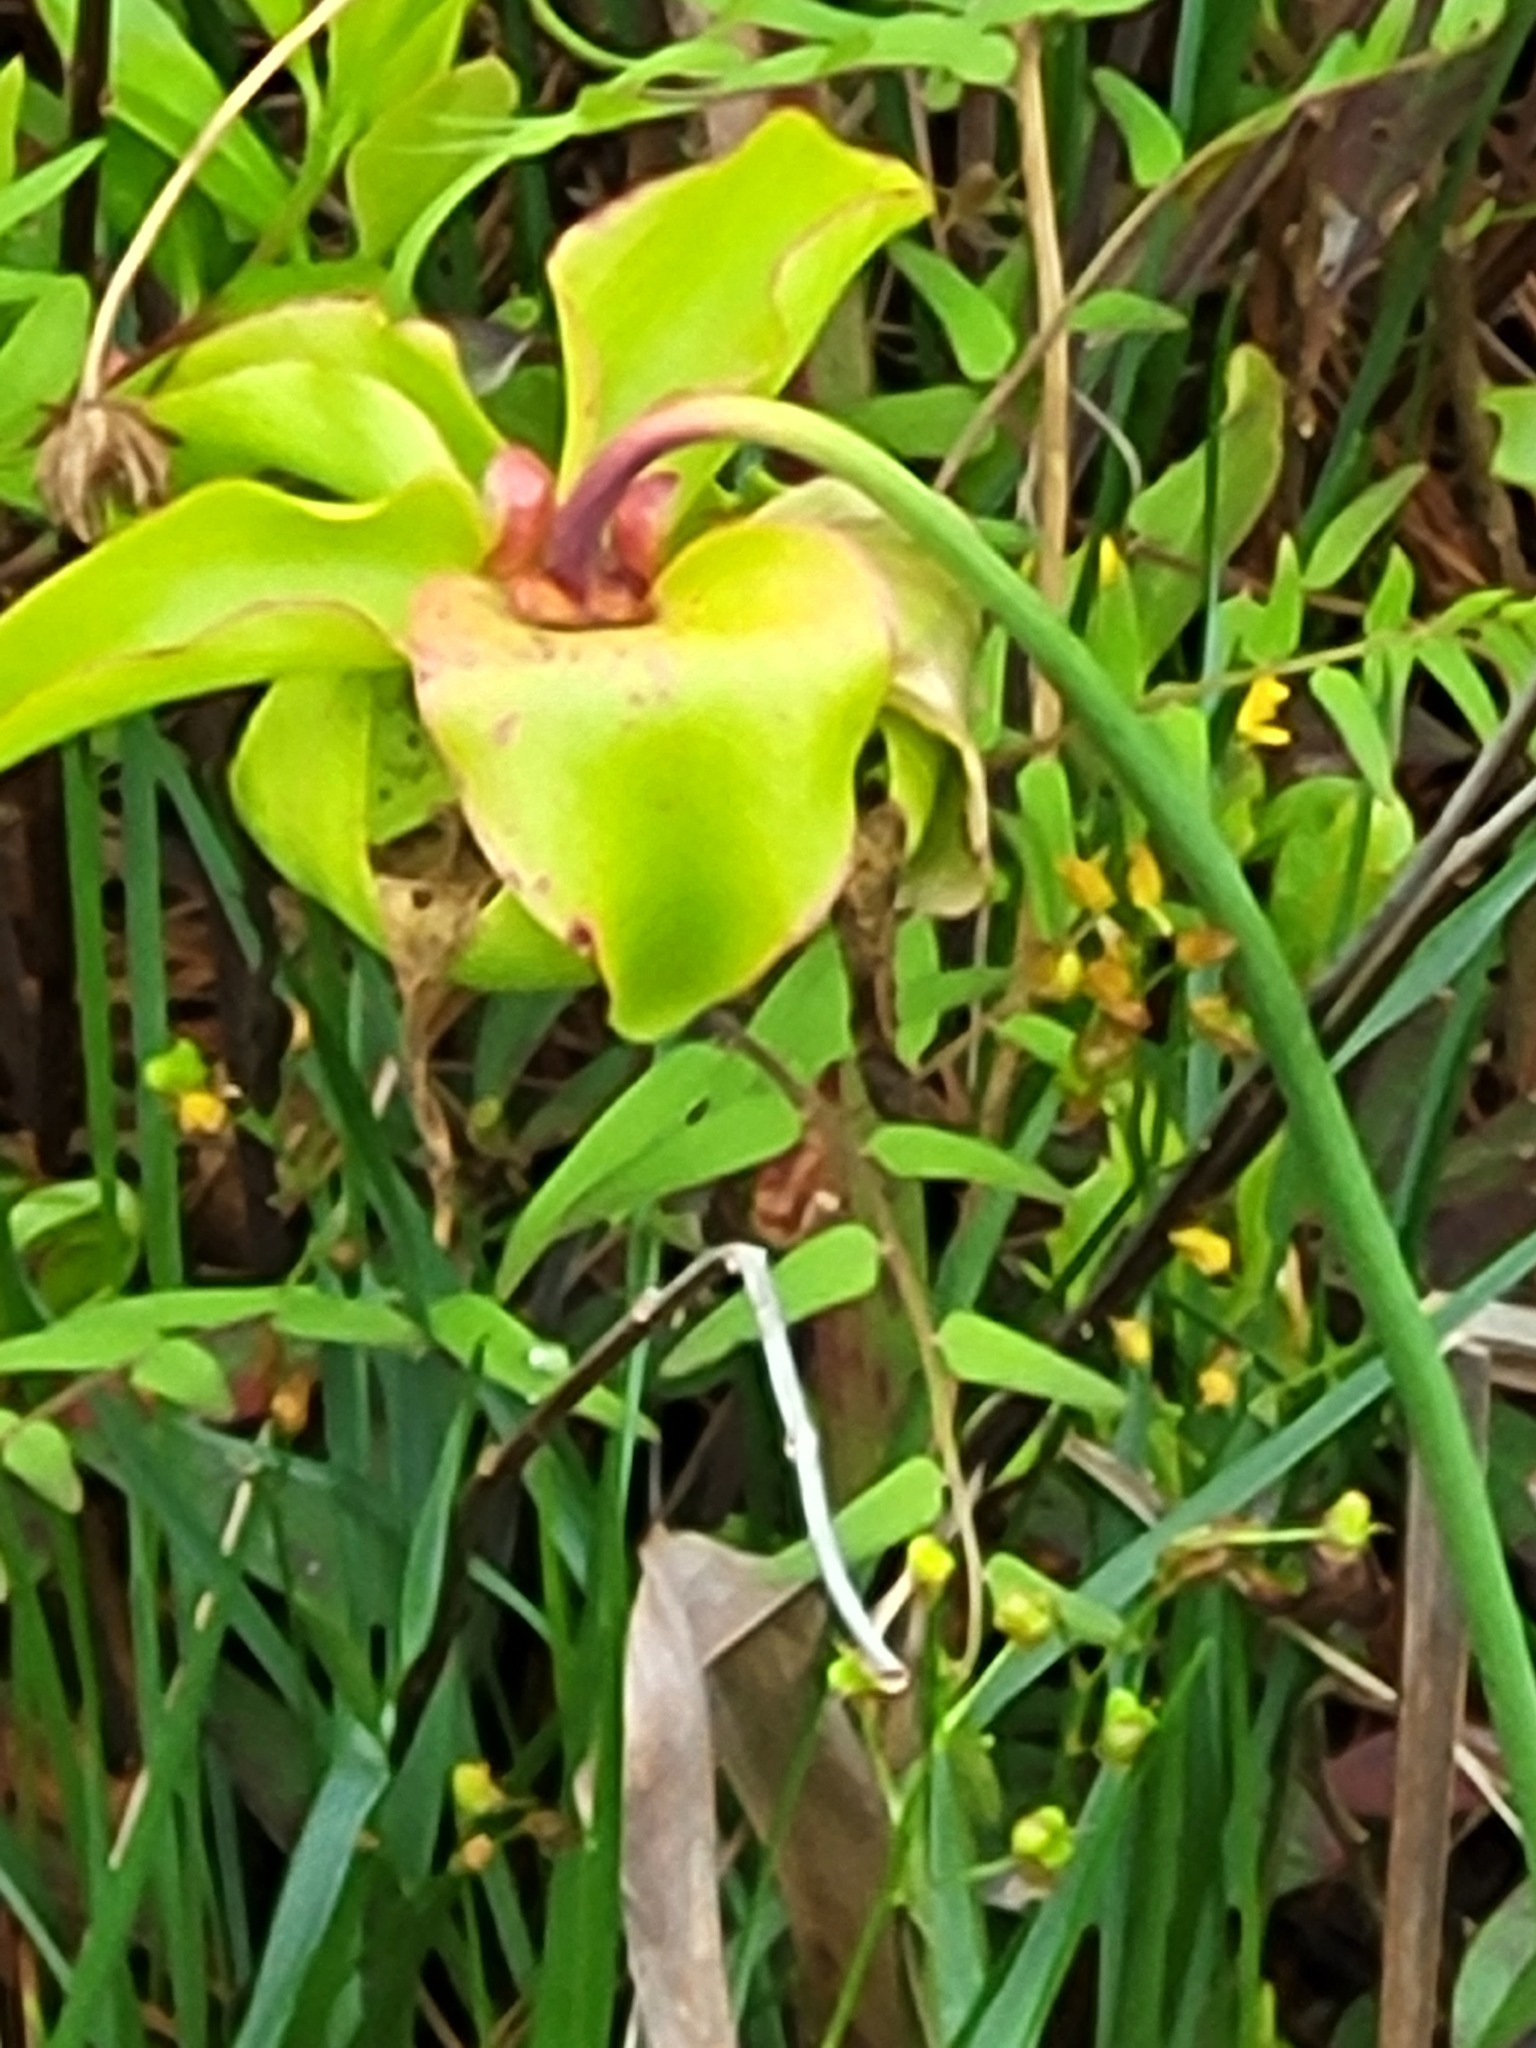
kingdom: Plantae
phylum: Tracheophyta
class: Magnoliopsida
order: Ericales
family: Sarraceniaceae
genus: Sarracenia
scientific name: Sarracenia alata
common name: Yellow trumpets
